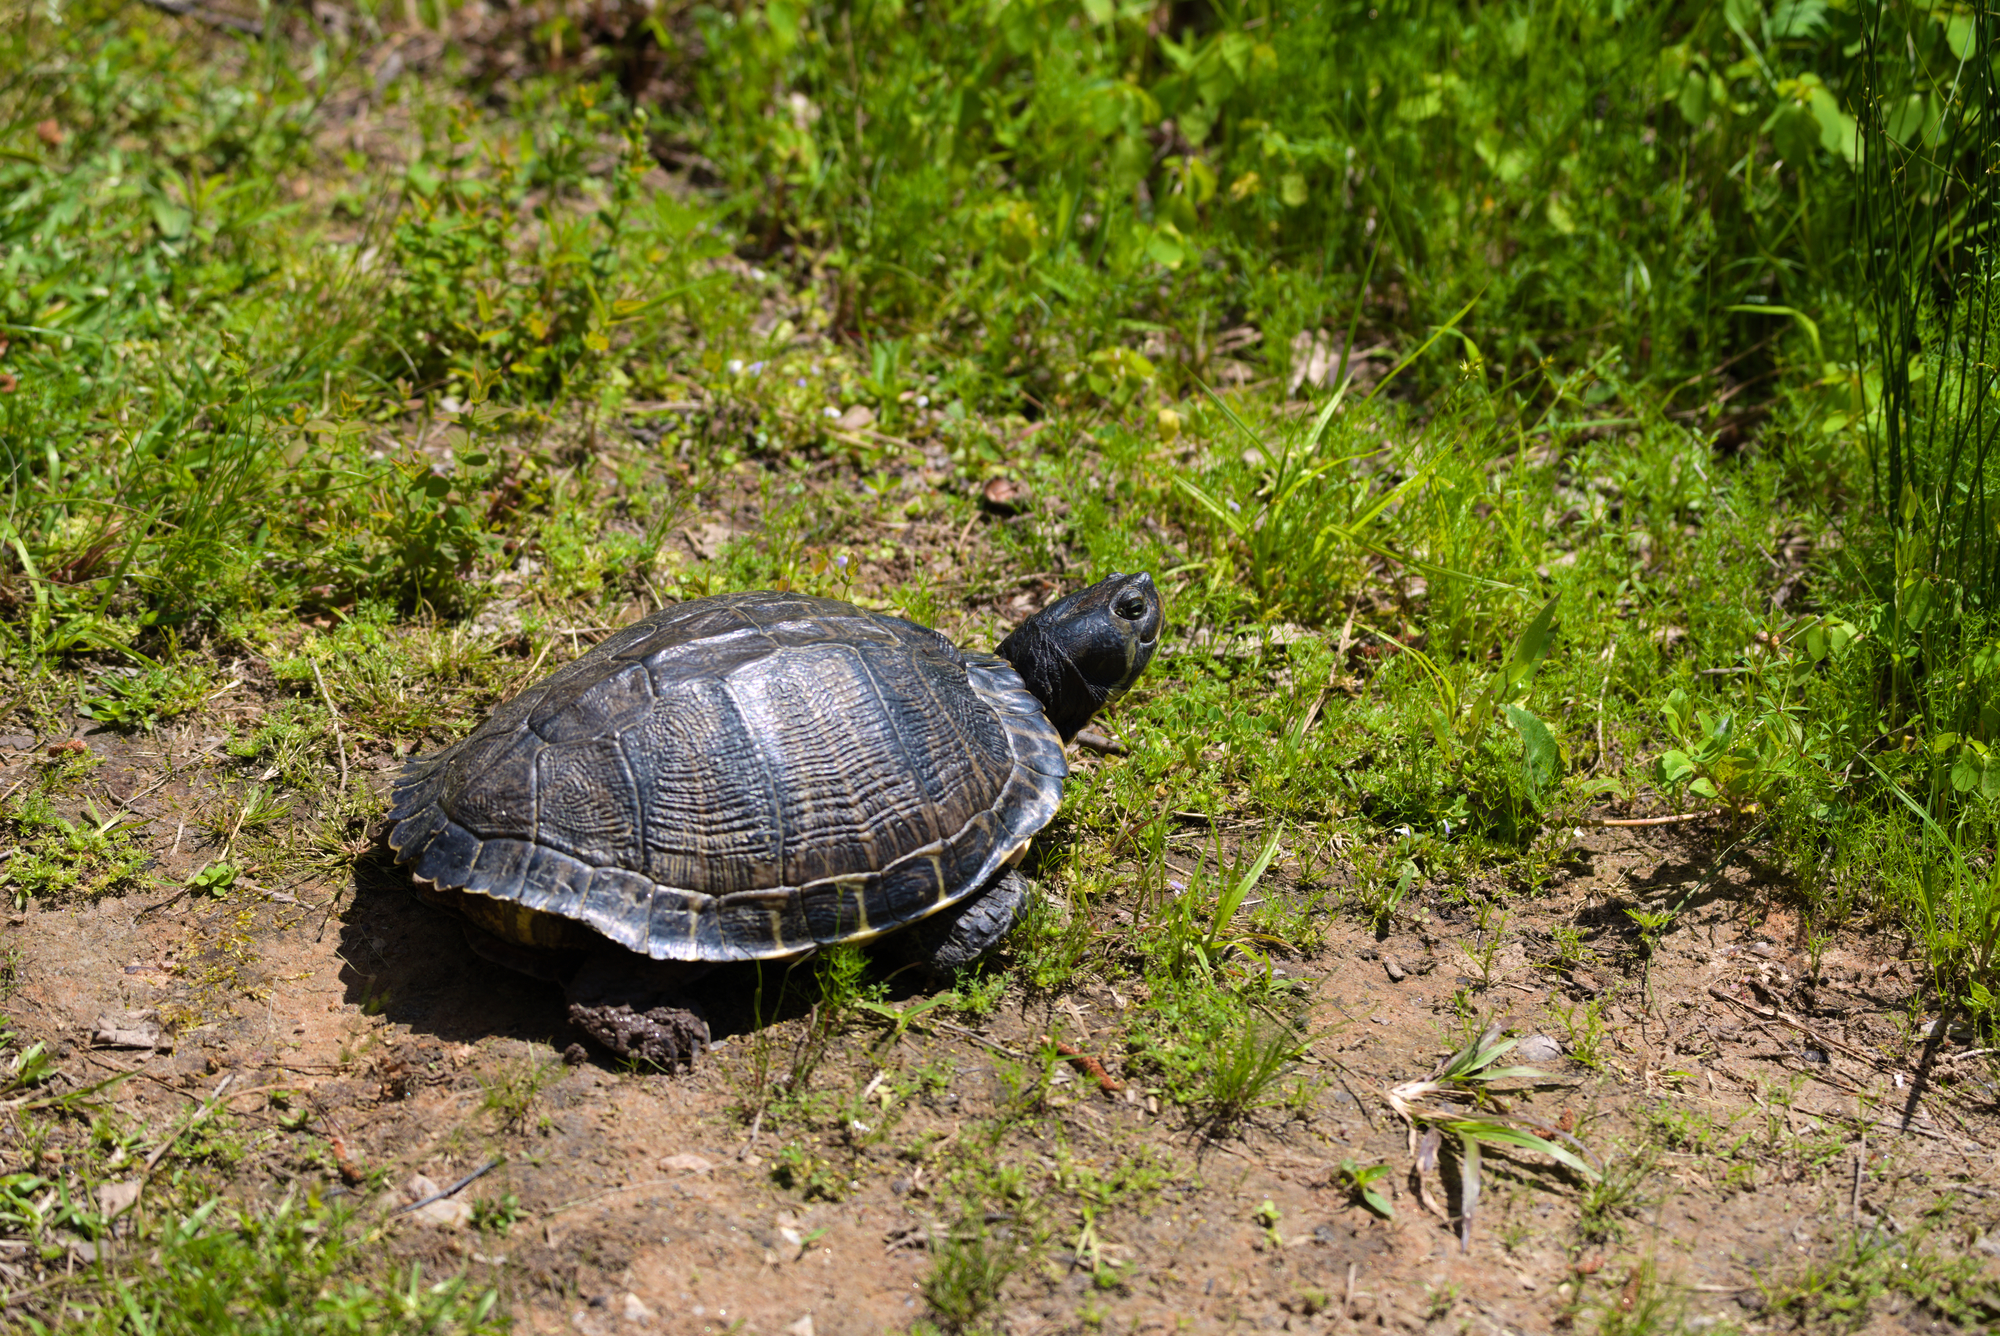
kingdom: Animalia
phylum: Chordata
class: Testudines
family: Emydidae
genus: Trachemys
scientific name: Trachemys scripta
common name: Slider
